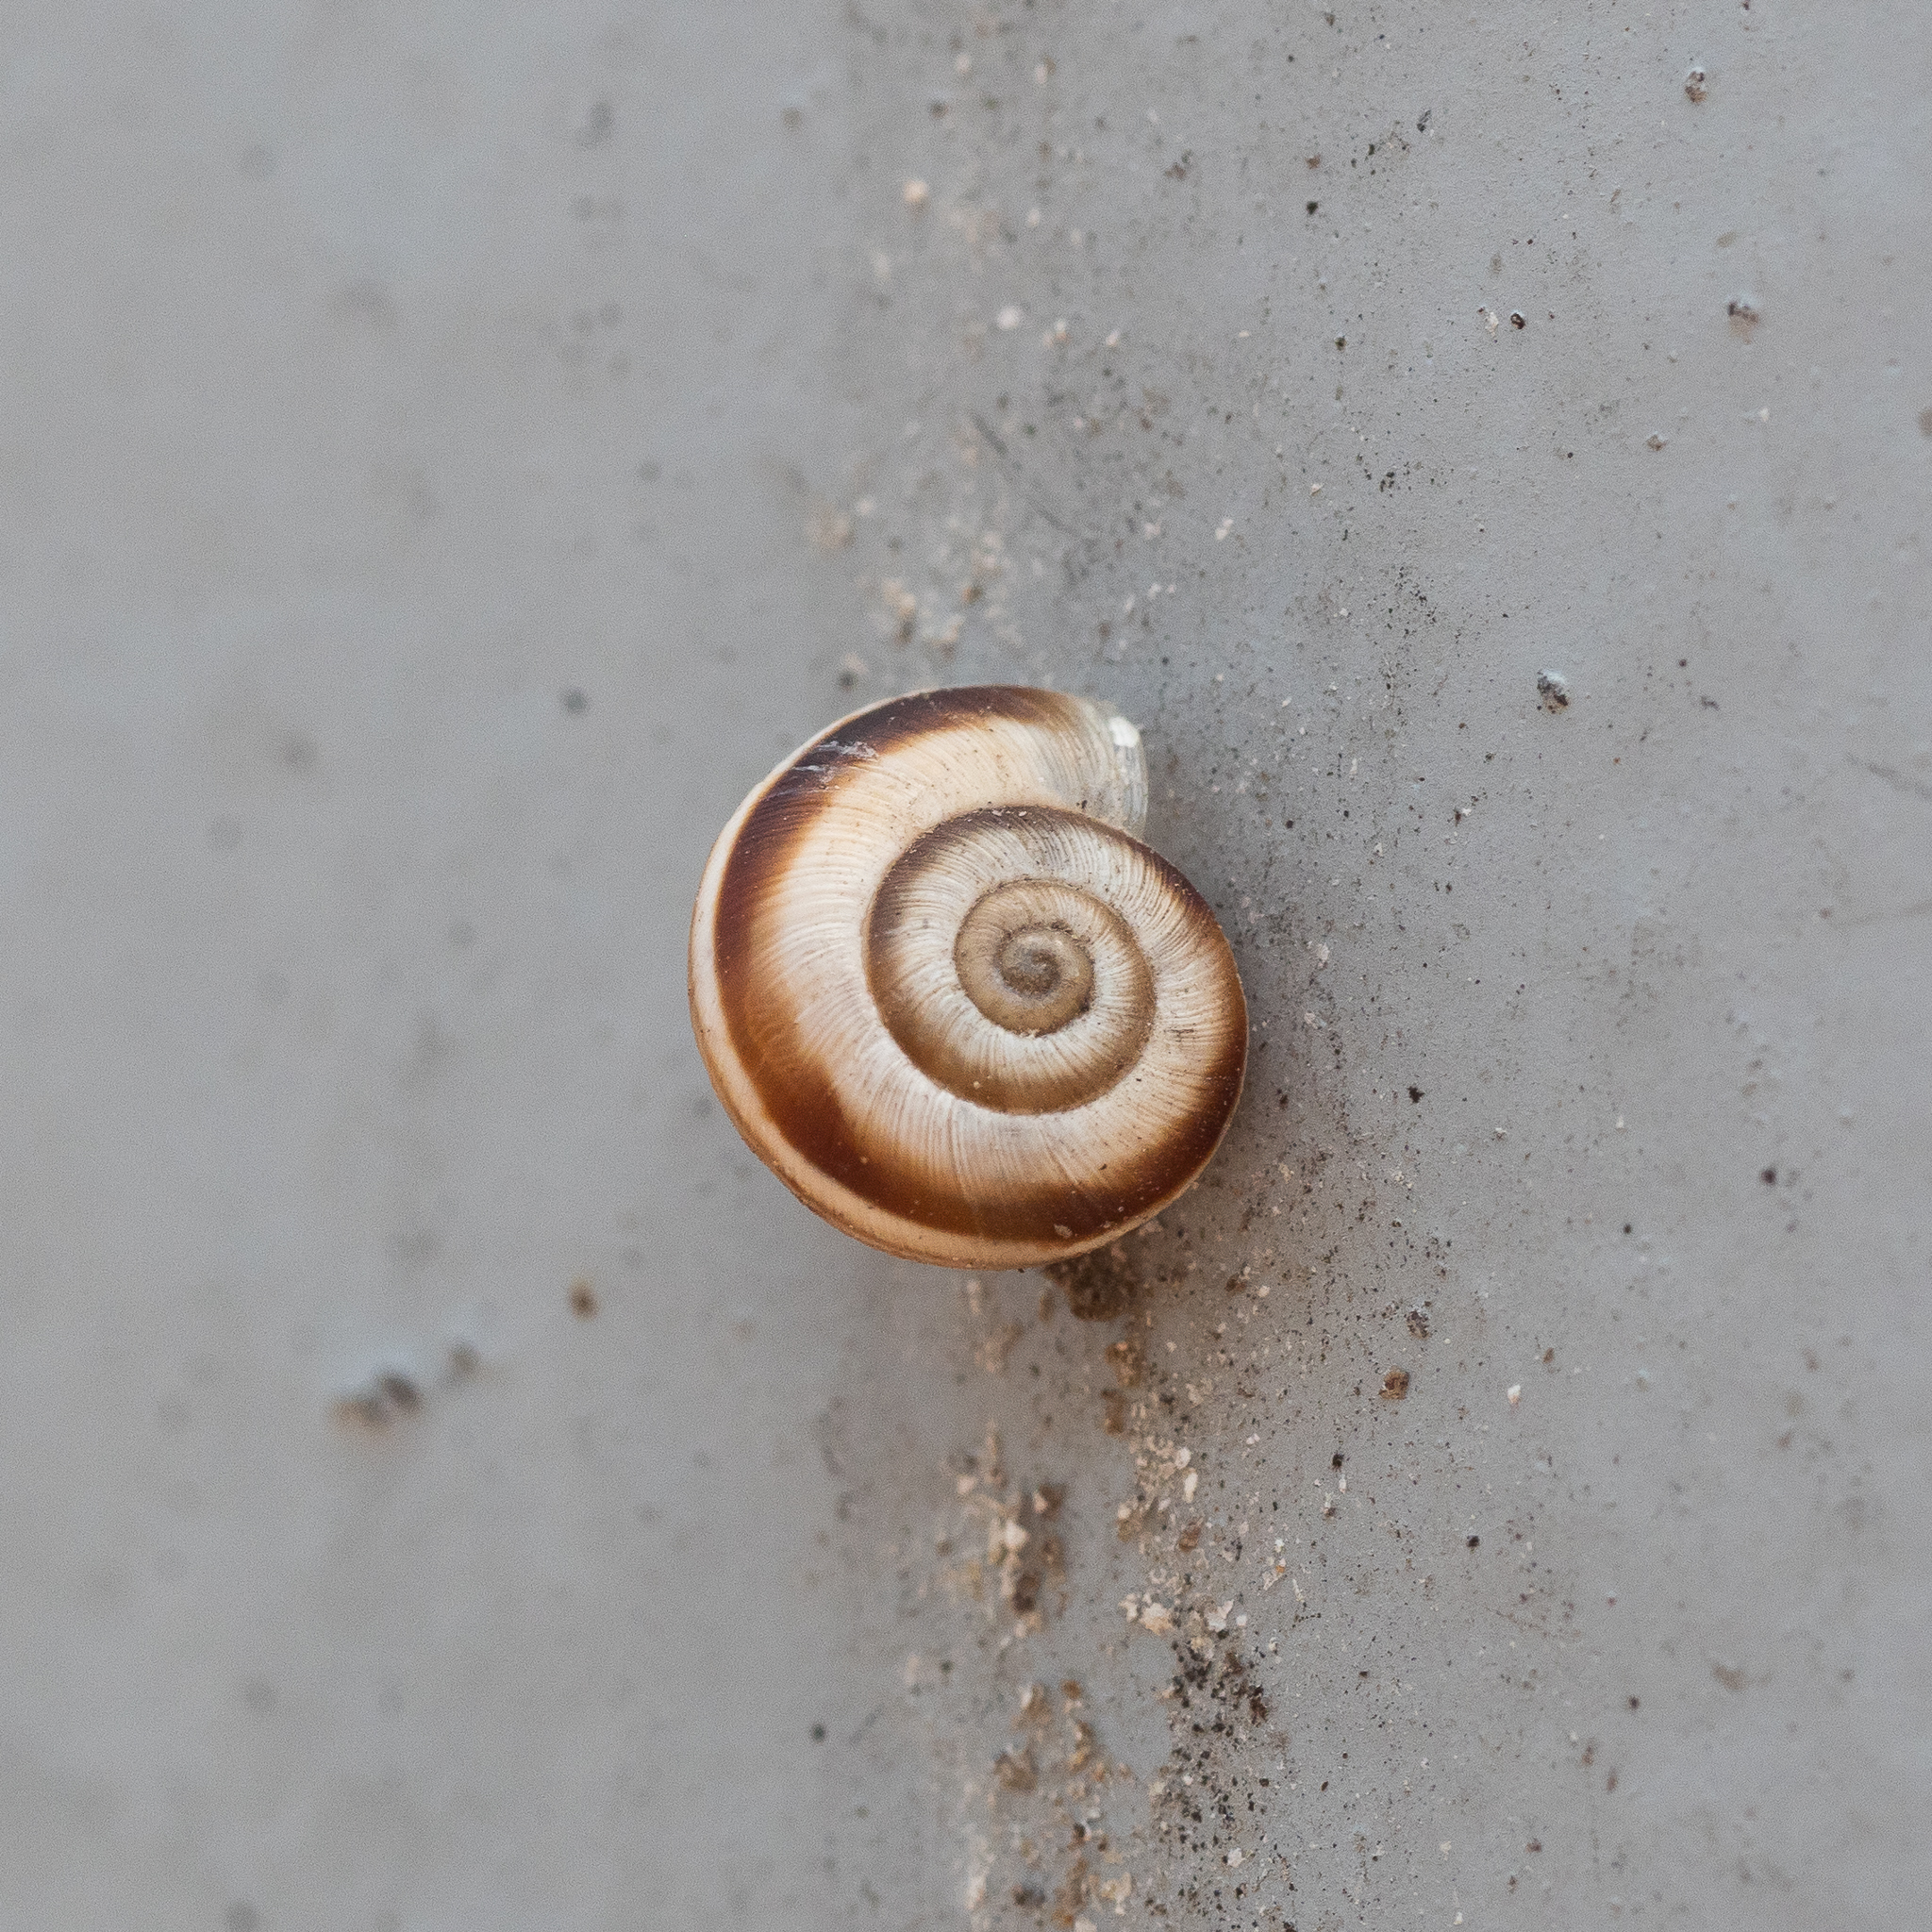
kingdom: Animalia
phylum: Mollusca
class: Gastropoda
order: Stylommatophora
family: Geomitridae
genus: Xerolenta
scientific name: Xerolenta obvia
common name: White heath snail
